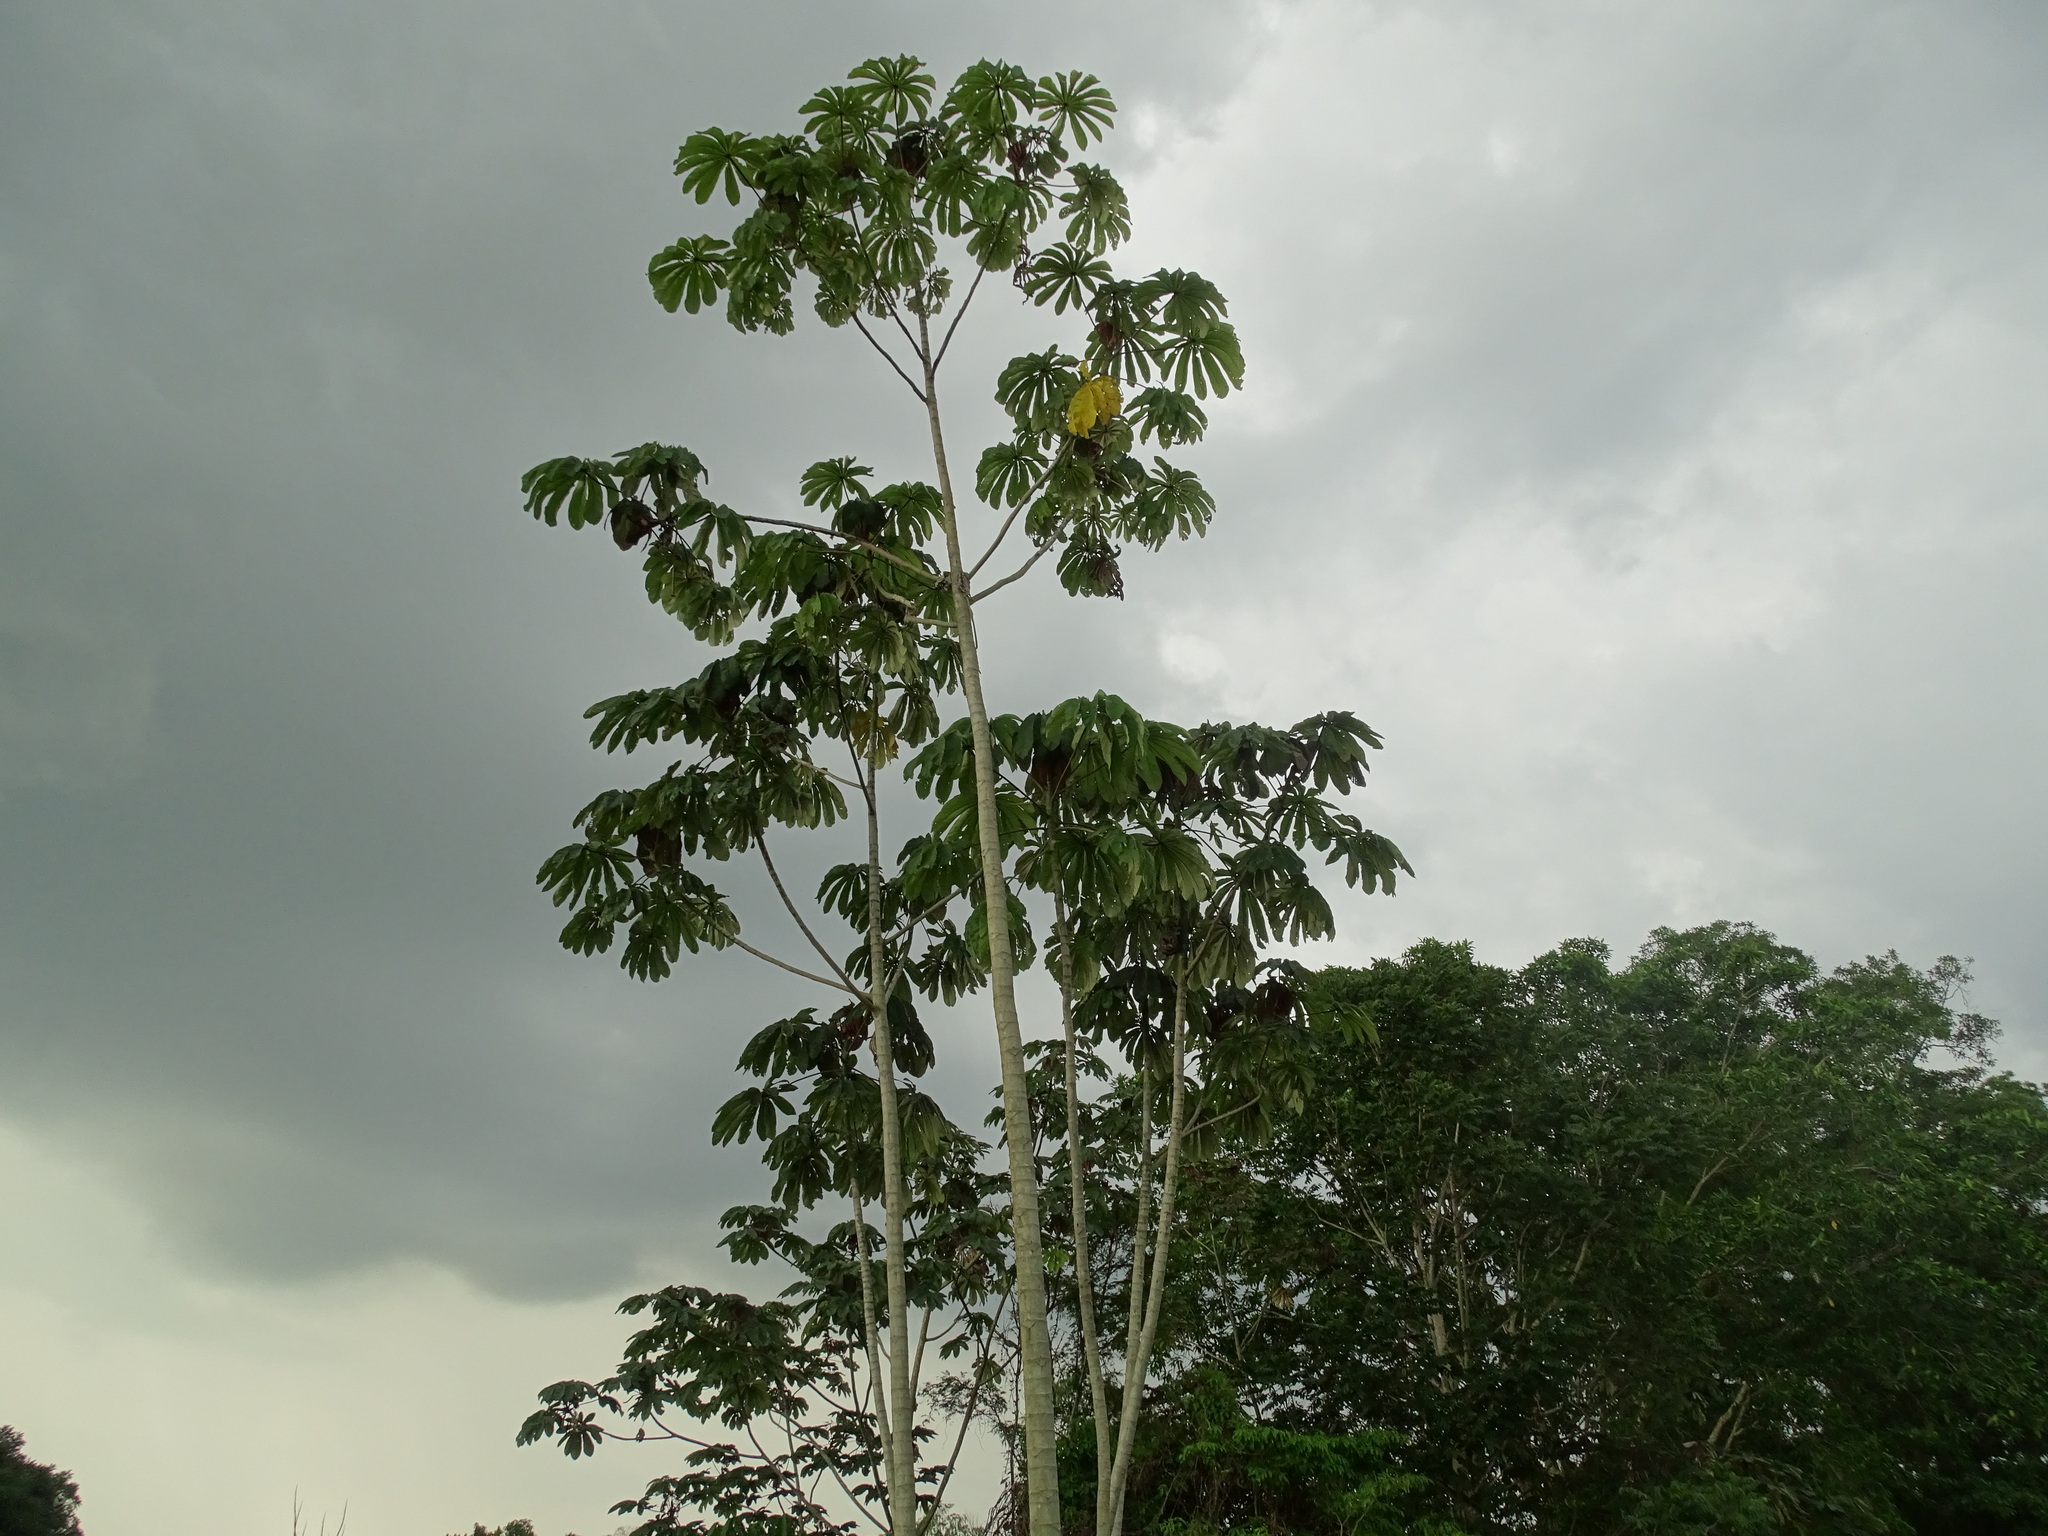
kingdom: Plantae
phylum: Tracheophyta
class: Magnoliopsida
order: Rosales
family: Urticaceae
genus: Cecropia
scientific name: Cecropia obtusifolia
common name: Trumpet tree
